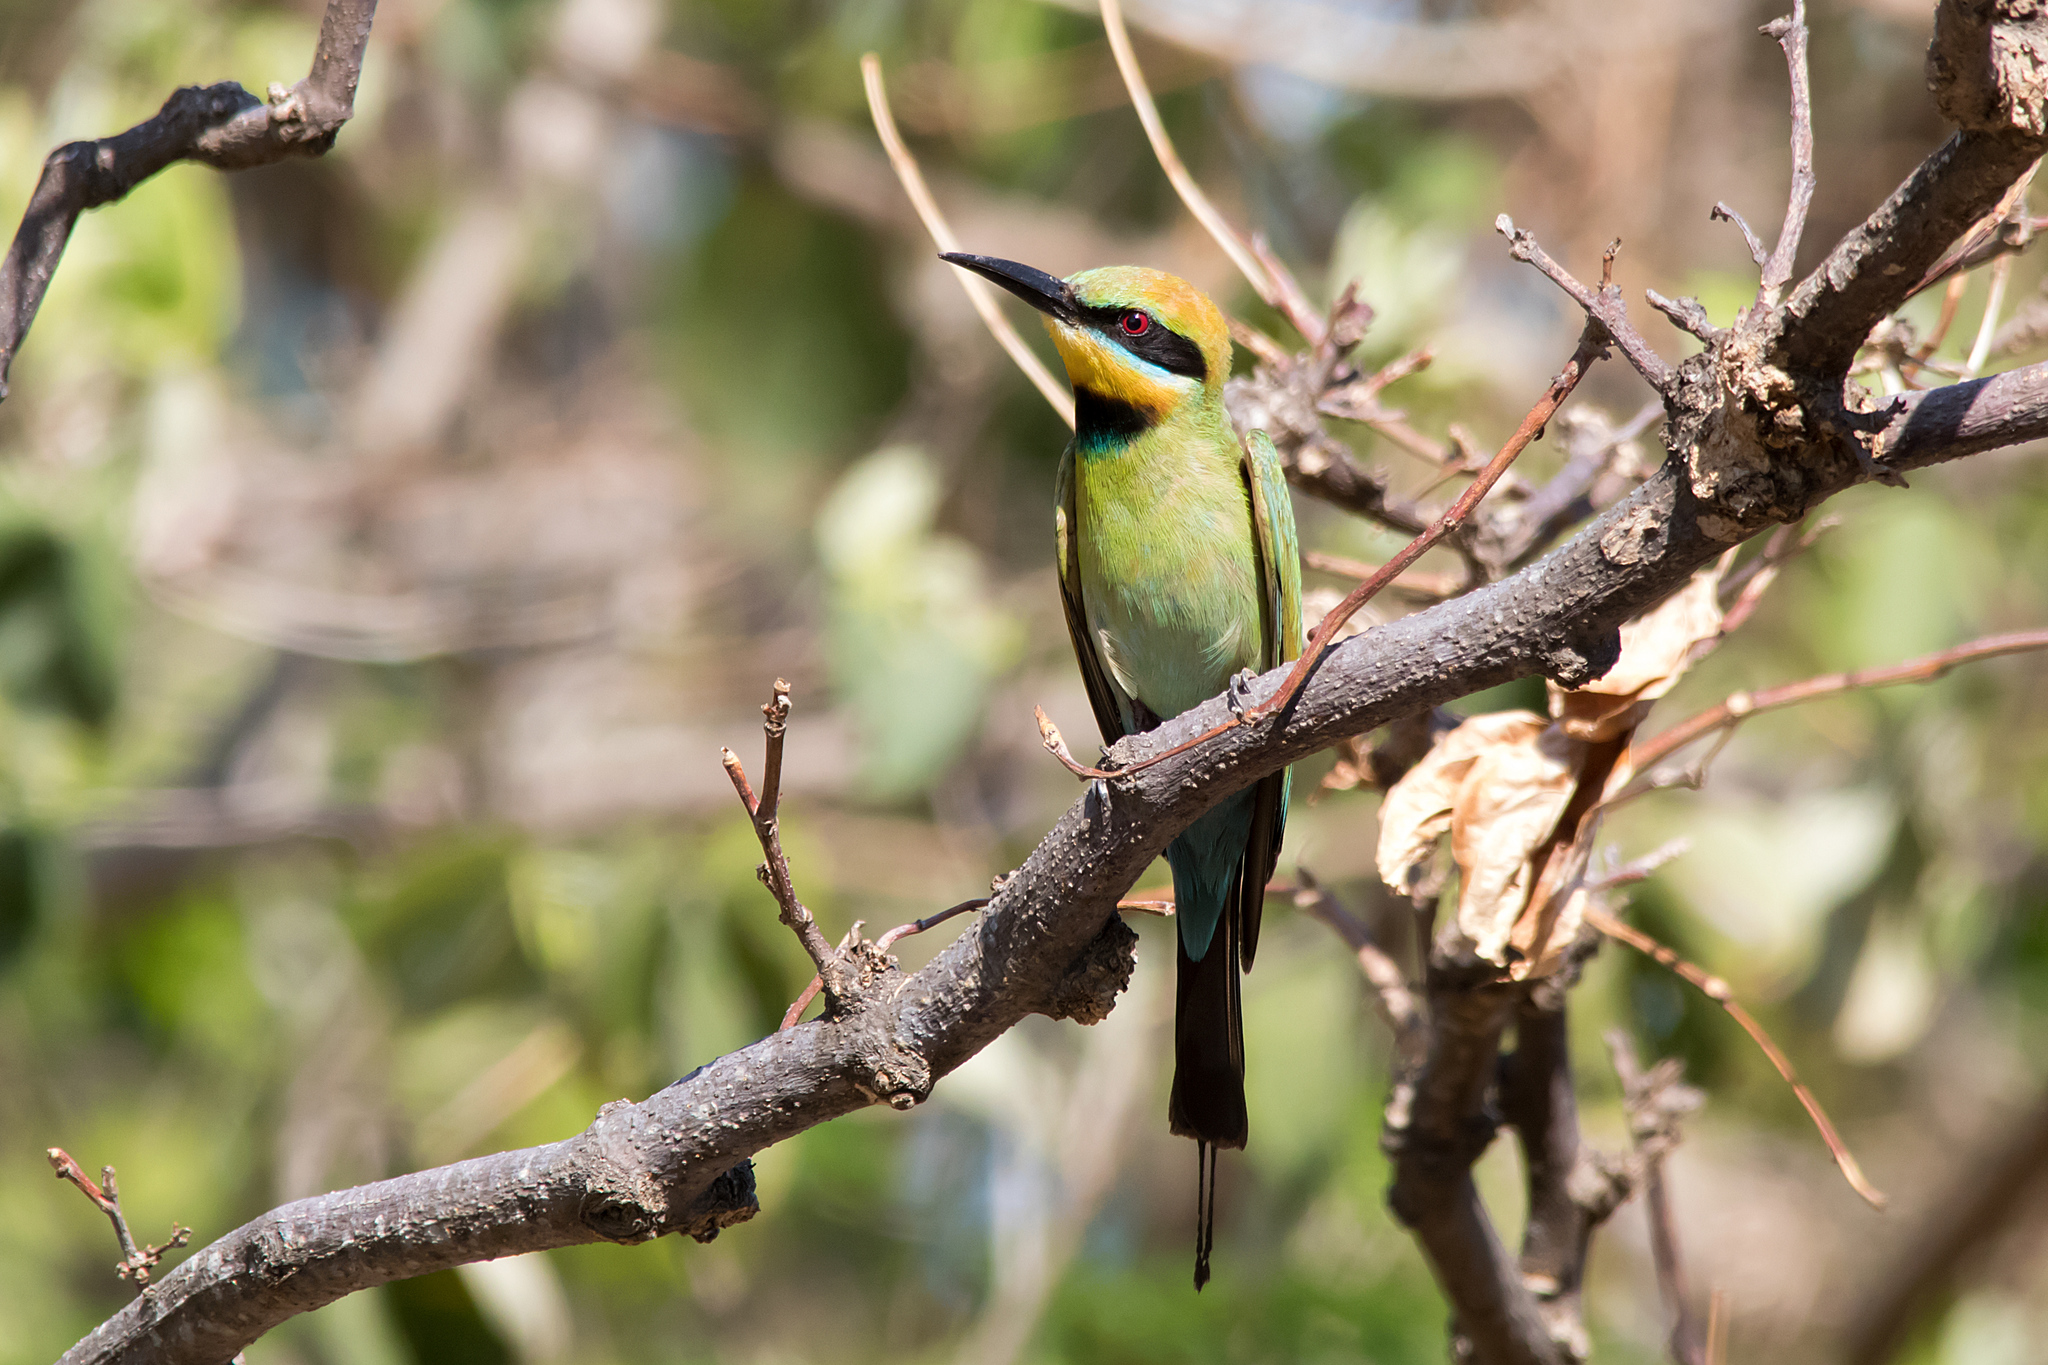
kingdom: Animalia
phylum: Chordata
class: Aves
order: Coraciiformes
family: Meropidae
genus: Merops
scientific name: Merops ornatus
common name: Rainbow bee-eater
